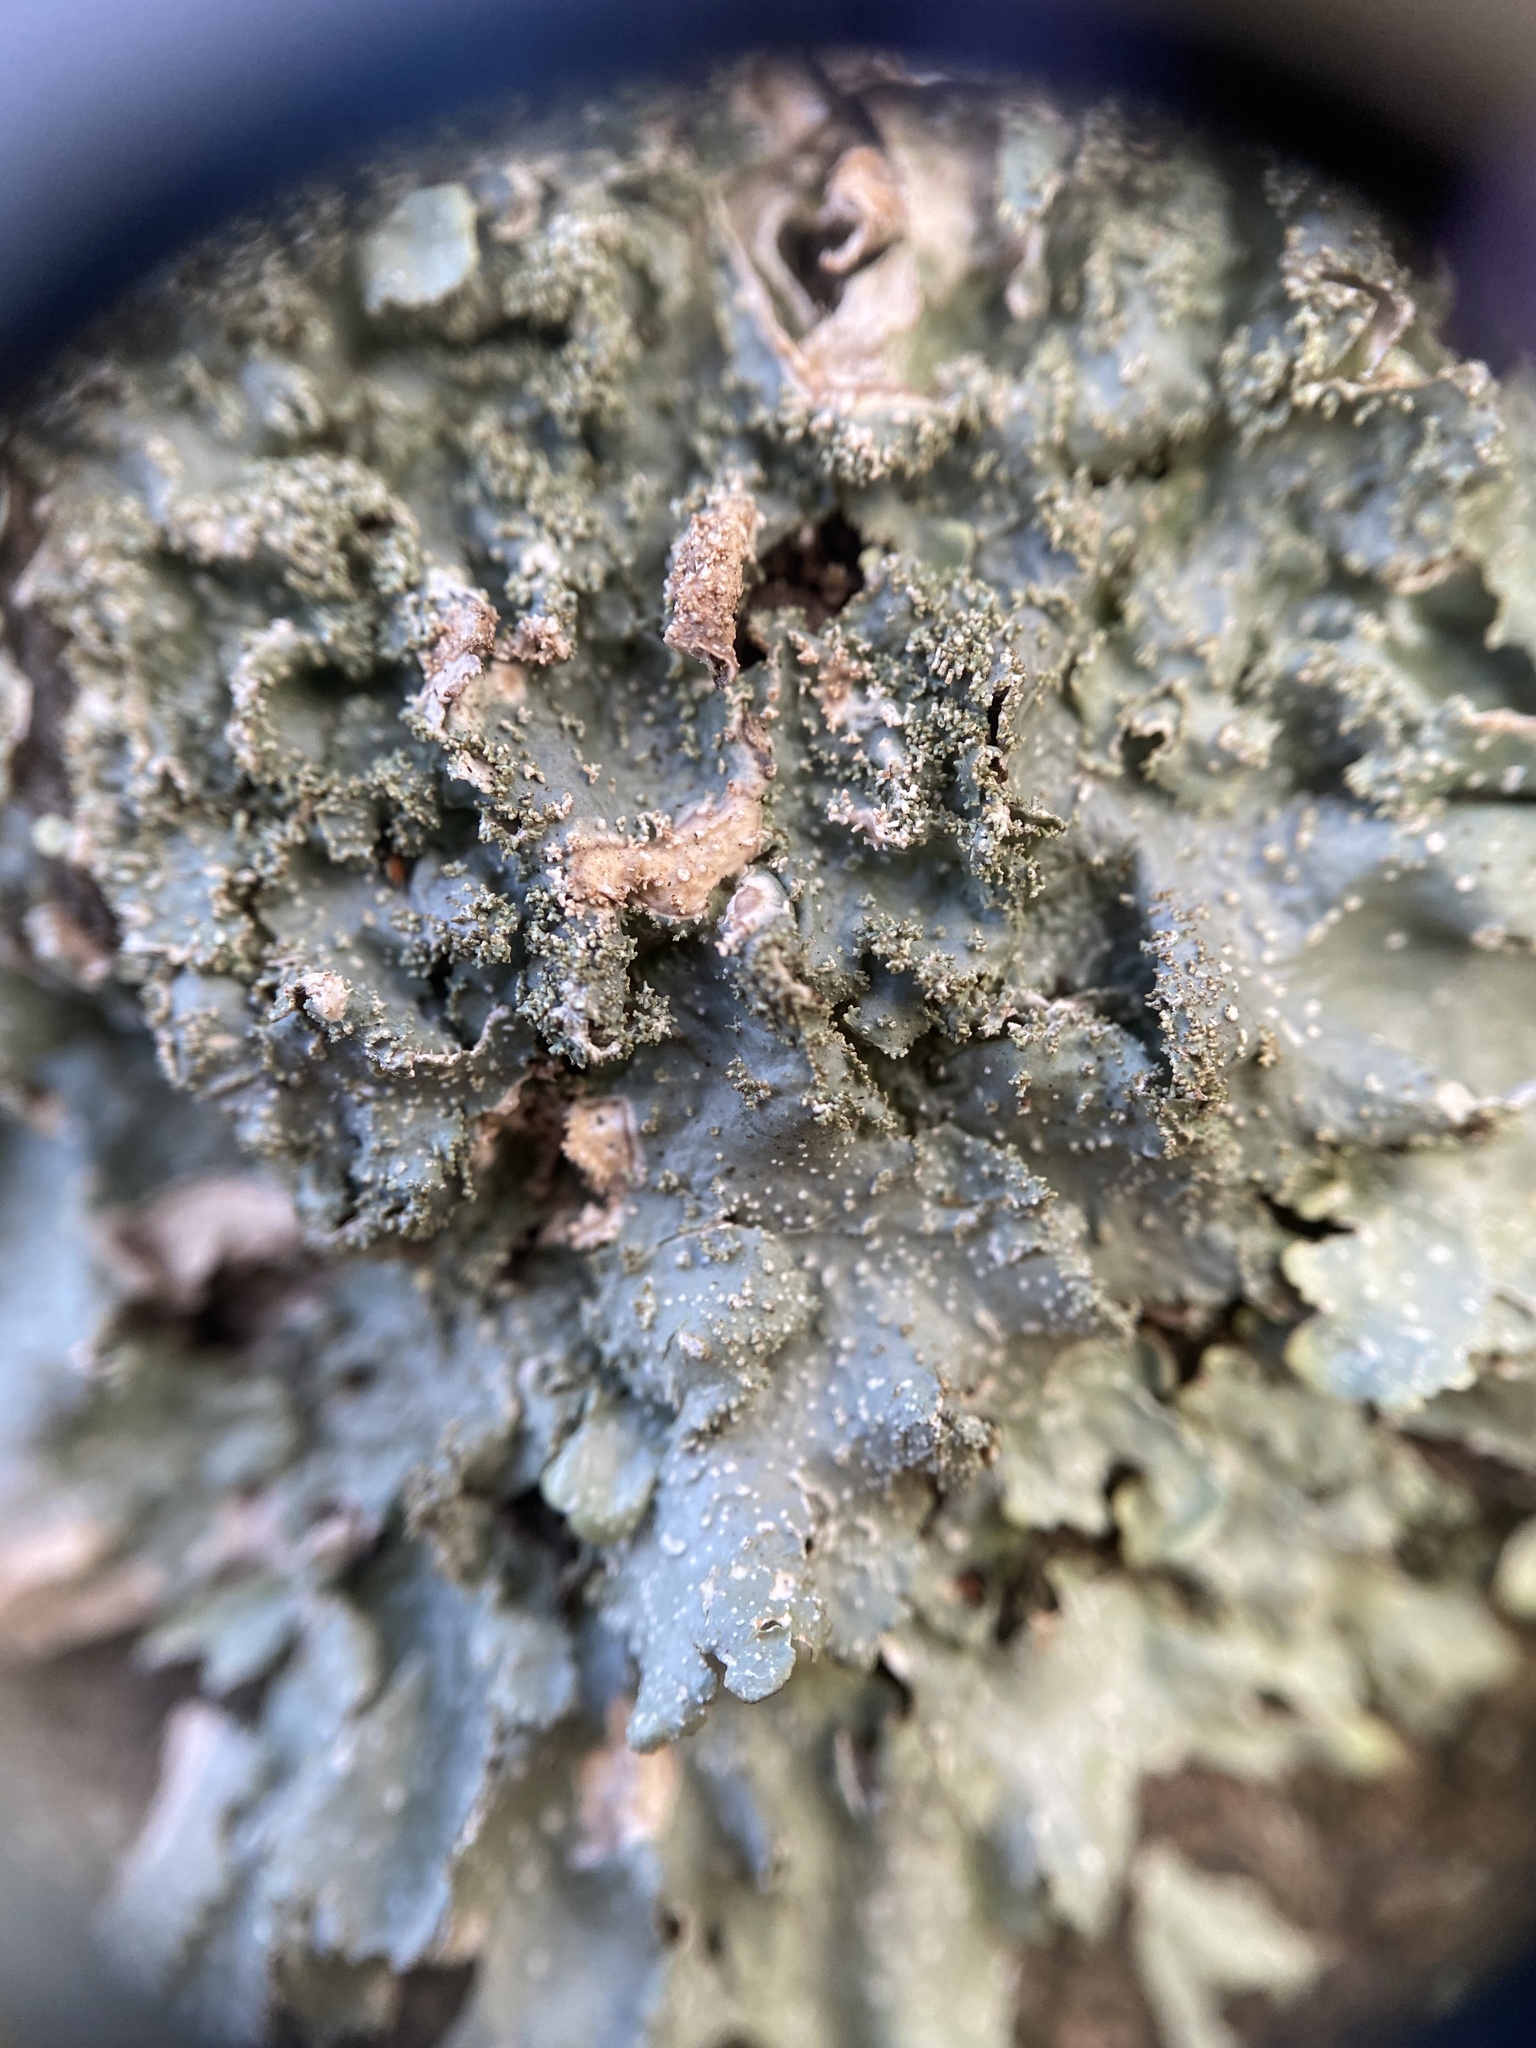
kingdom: Fungi
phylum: Ascomycota
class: Lecanoromycetes
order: Lecanorales
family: Parmeliaceae
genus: Punctelia
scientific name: Punctelia rudecta
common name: Rough speckled shield lichen
